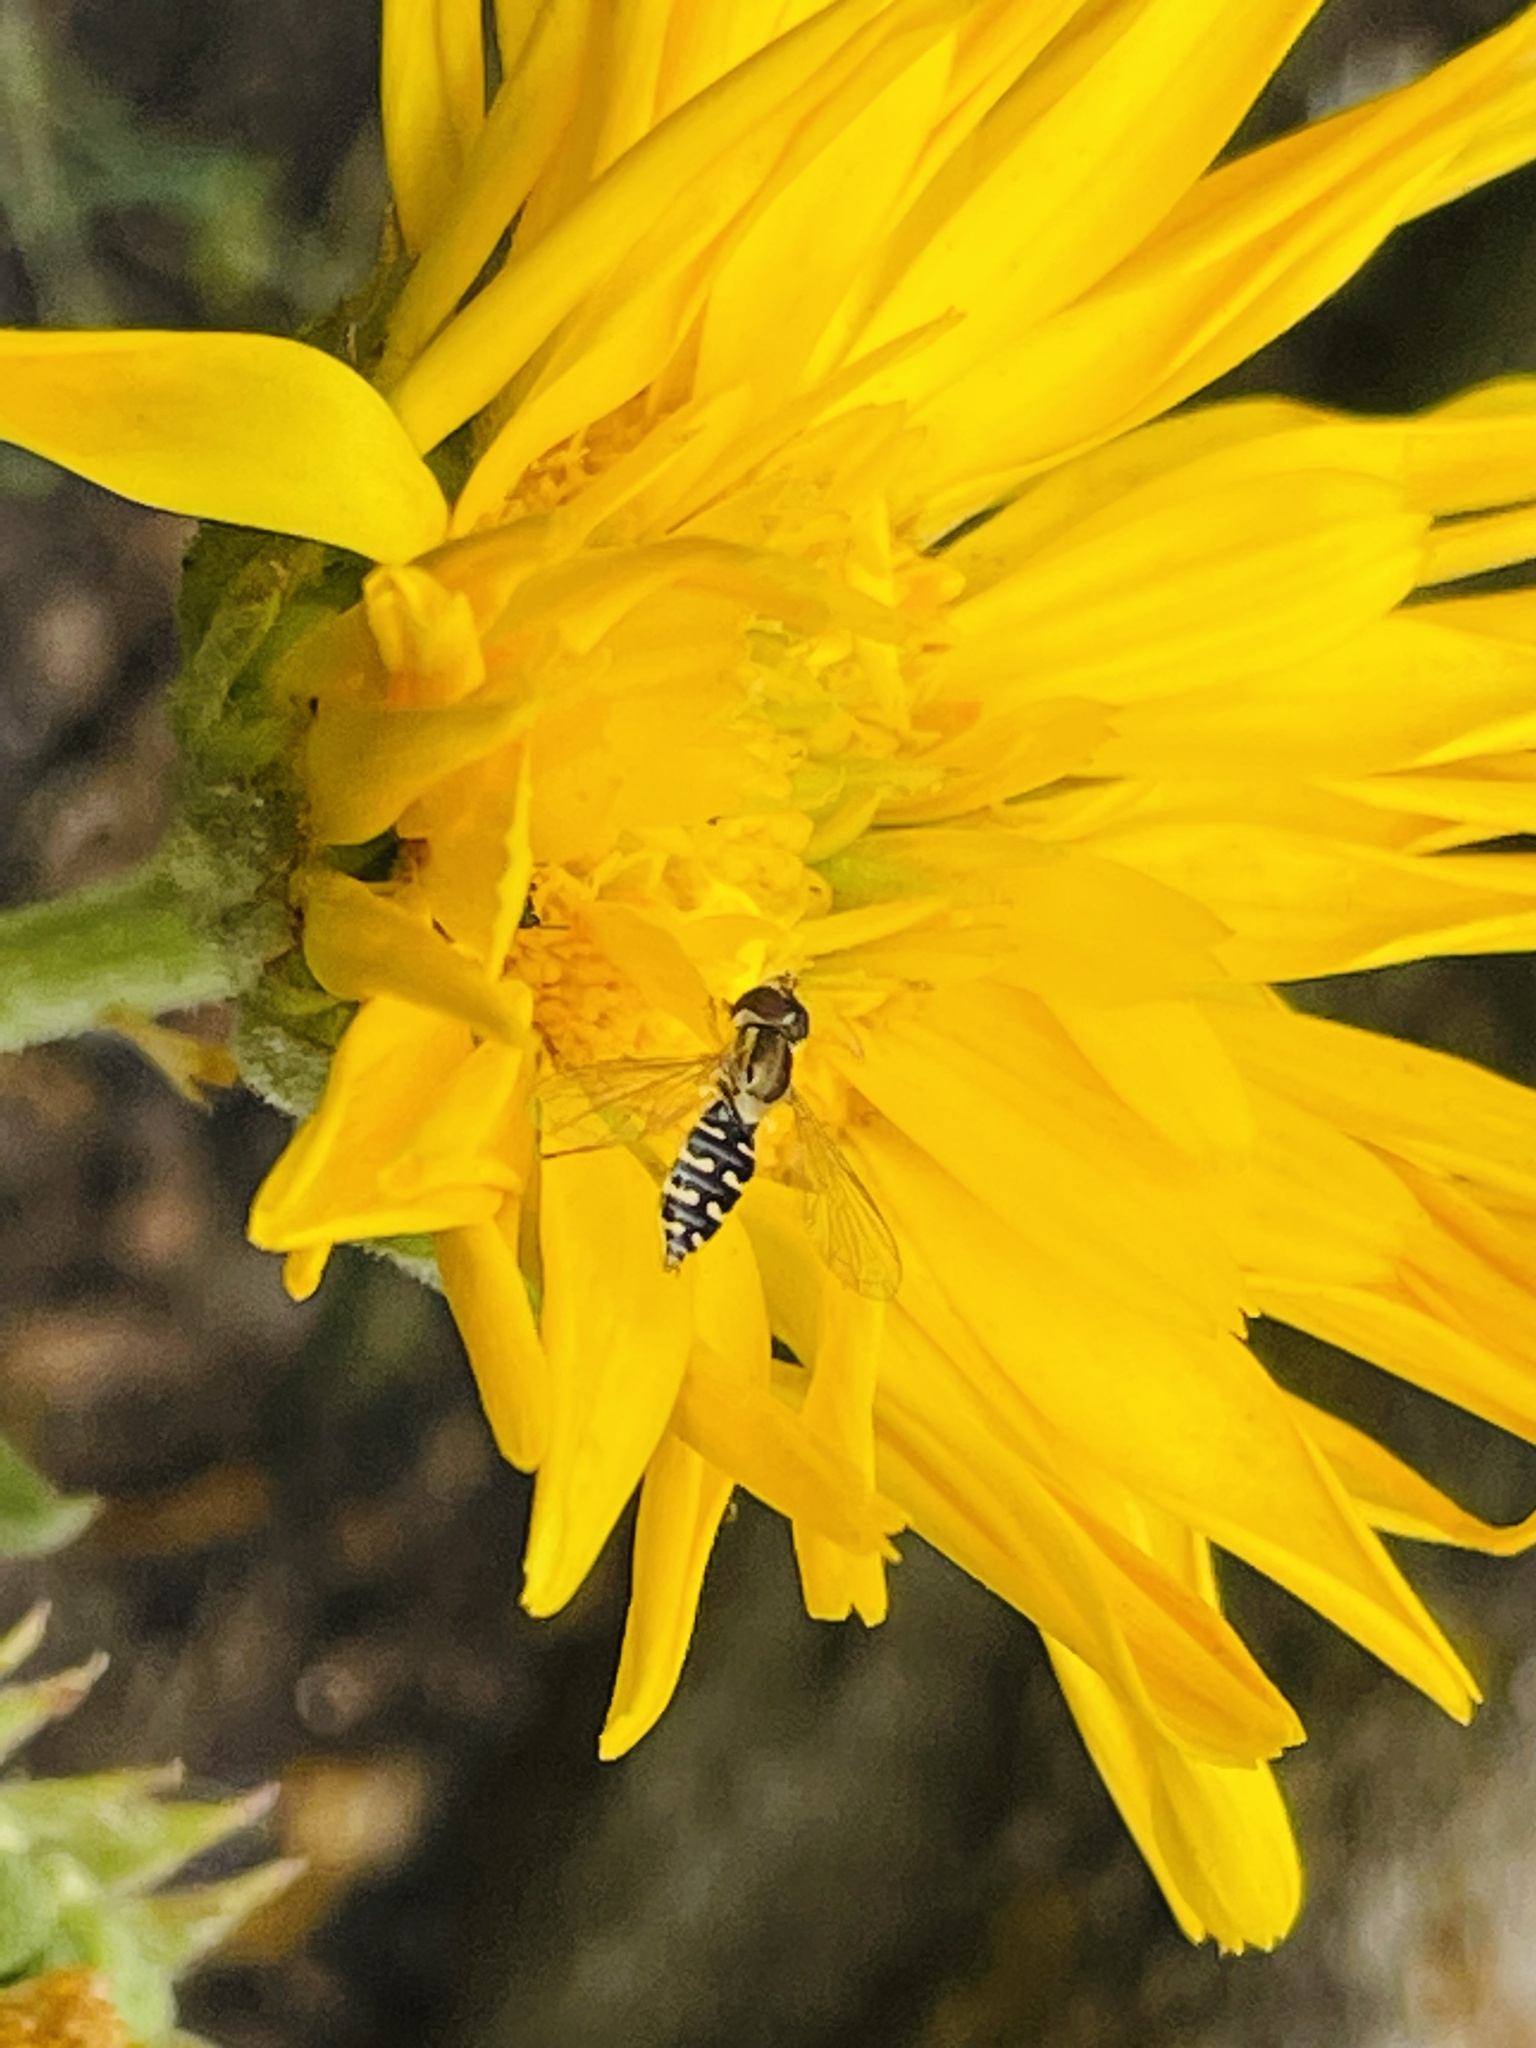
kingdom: Animalia
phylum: Arthropoda
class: Insecta
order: Diptera
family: Syrphidae
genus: Toxomerus
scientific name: Toxomerus vertebratus
